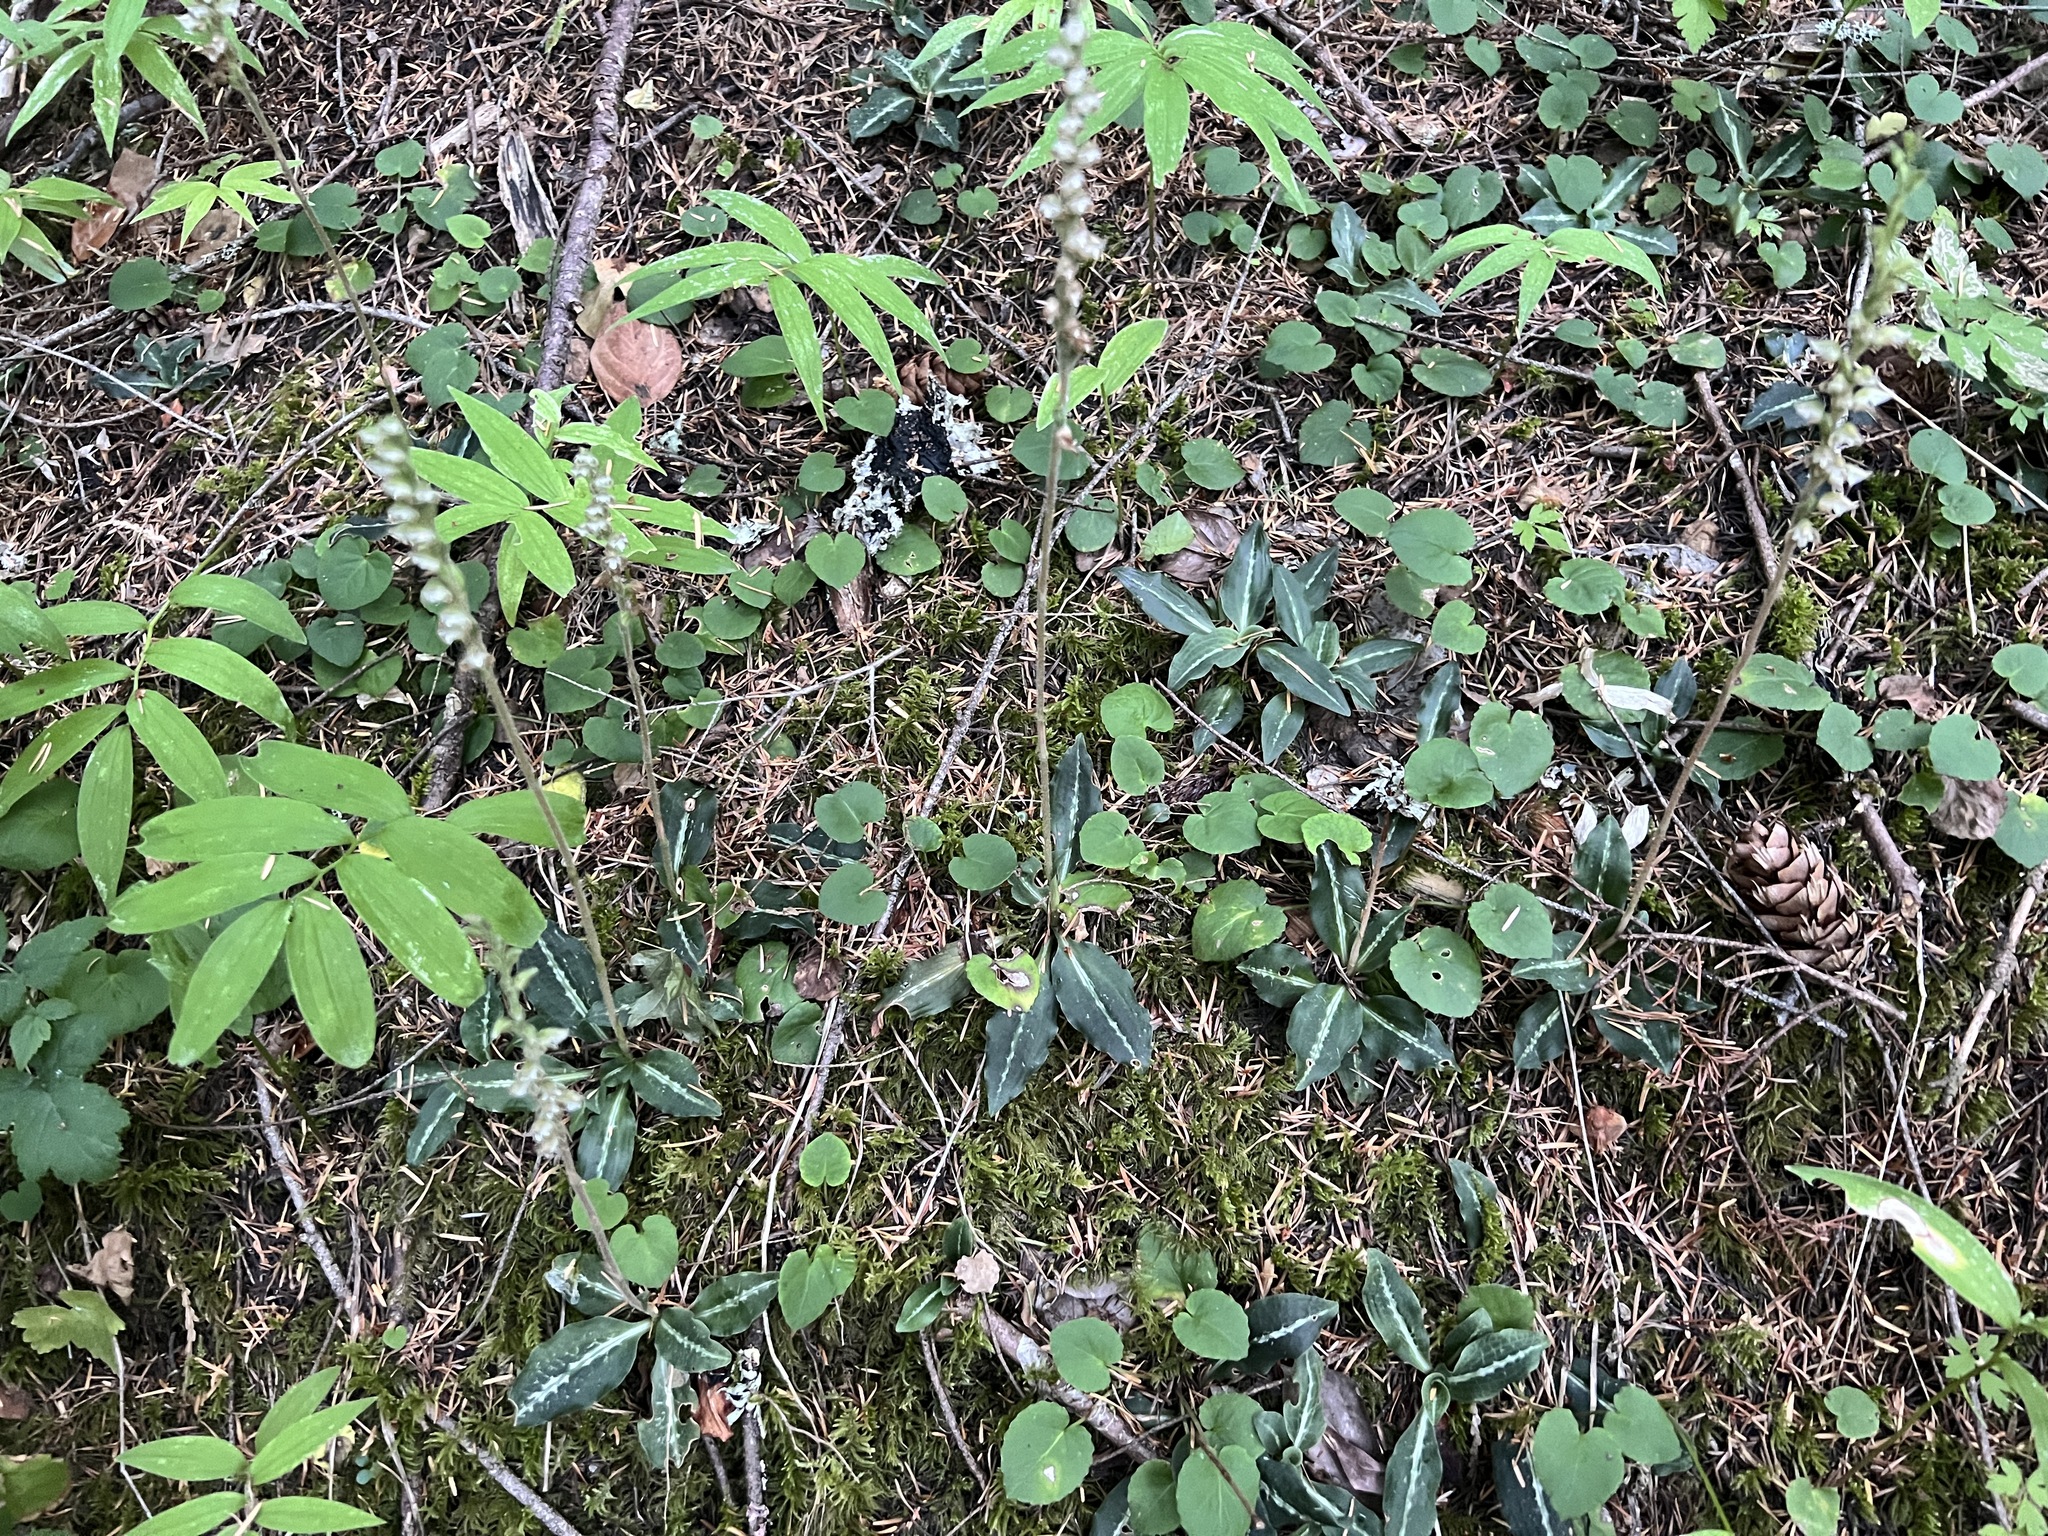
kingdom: Plantae
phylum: Tracheophyta
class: Liliopsida
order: Asparagales
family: Orchidaceae
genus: Goodyera
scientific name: Goodyera oblongifolia
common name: Giant rattlesnake-plantain
